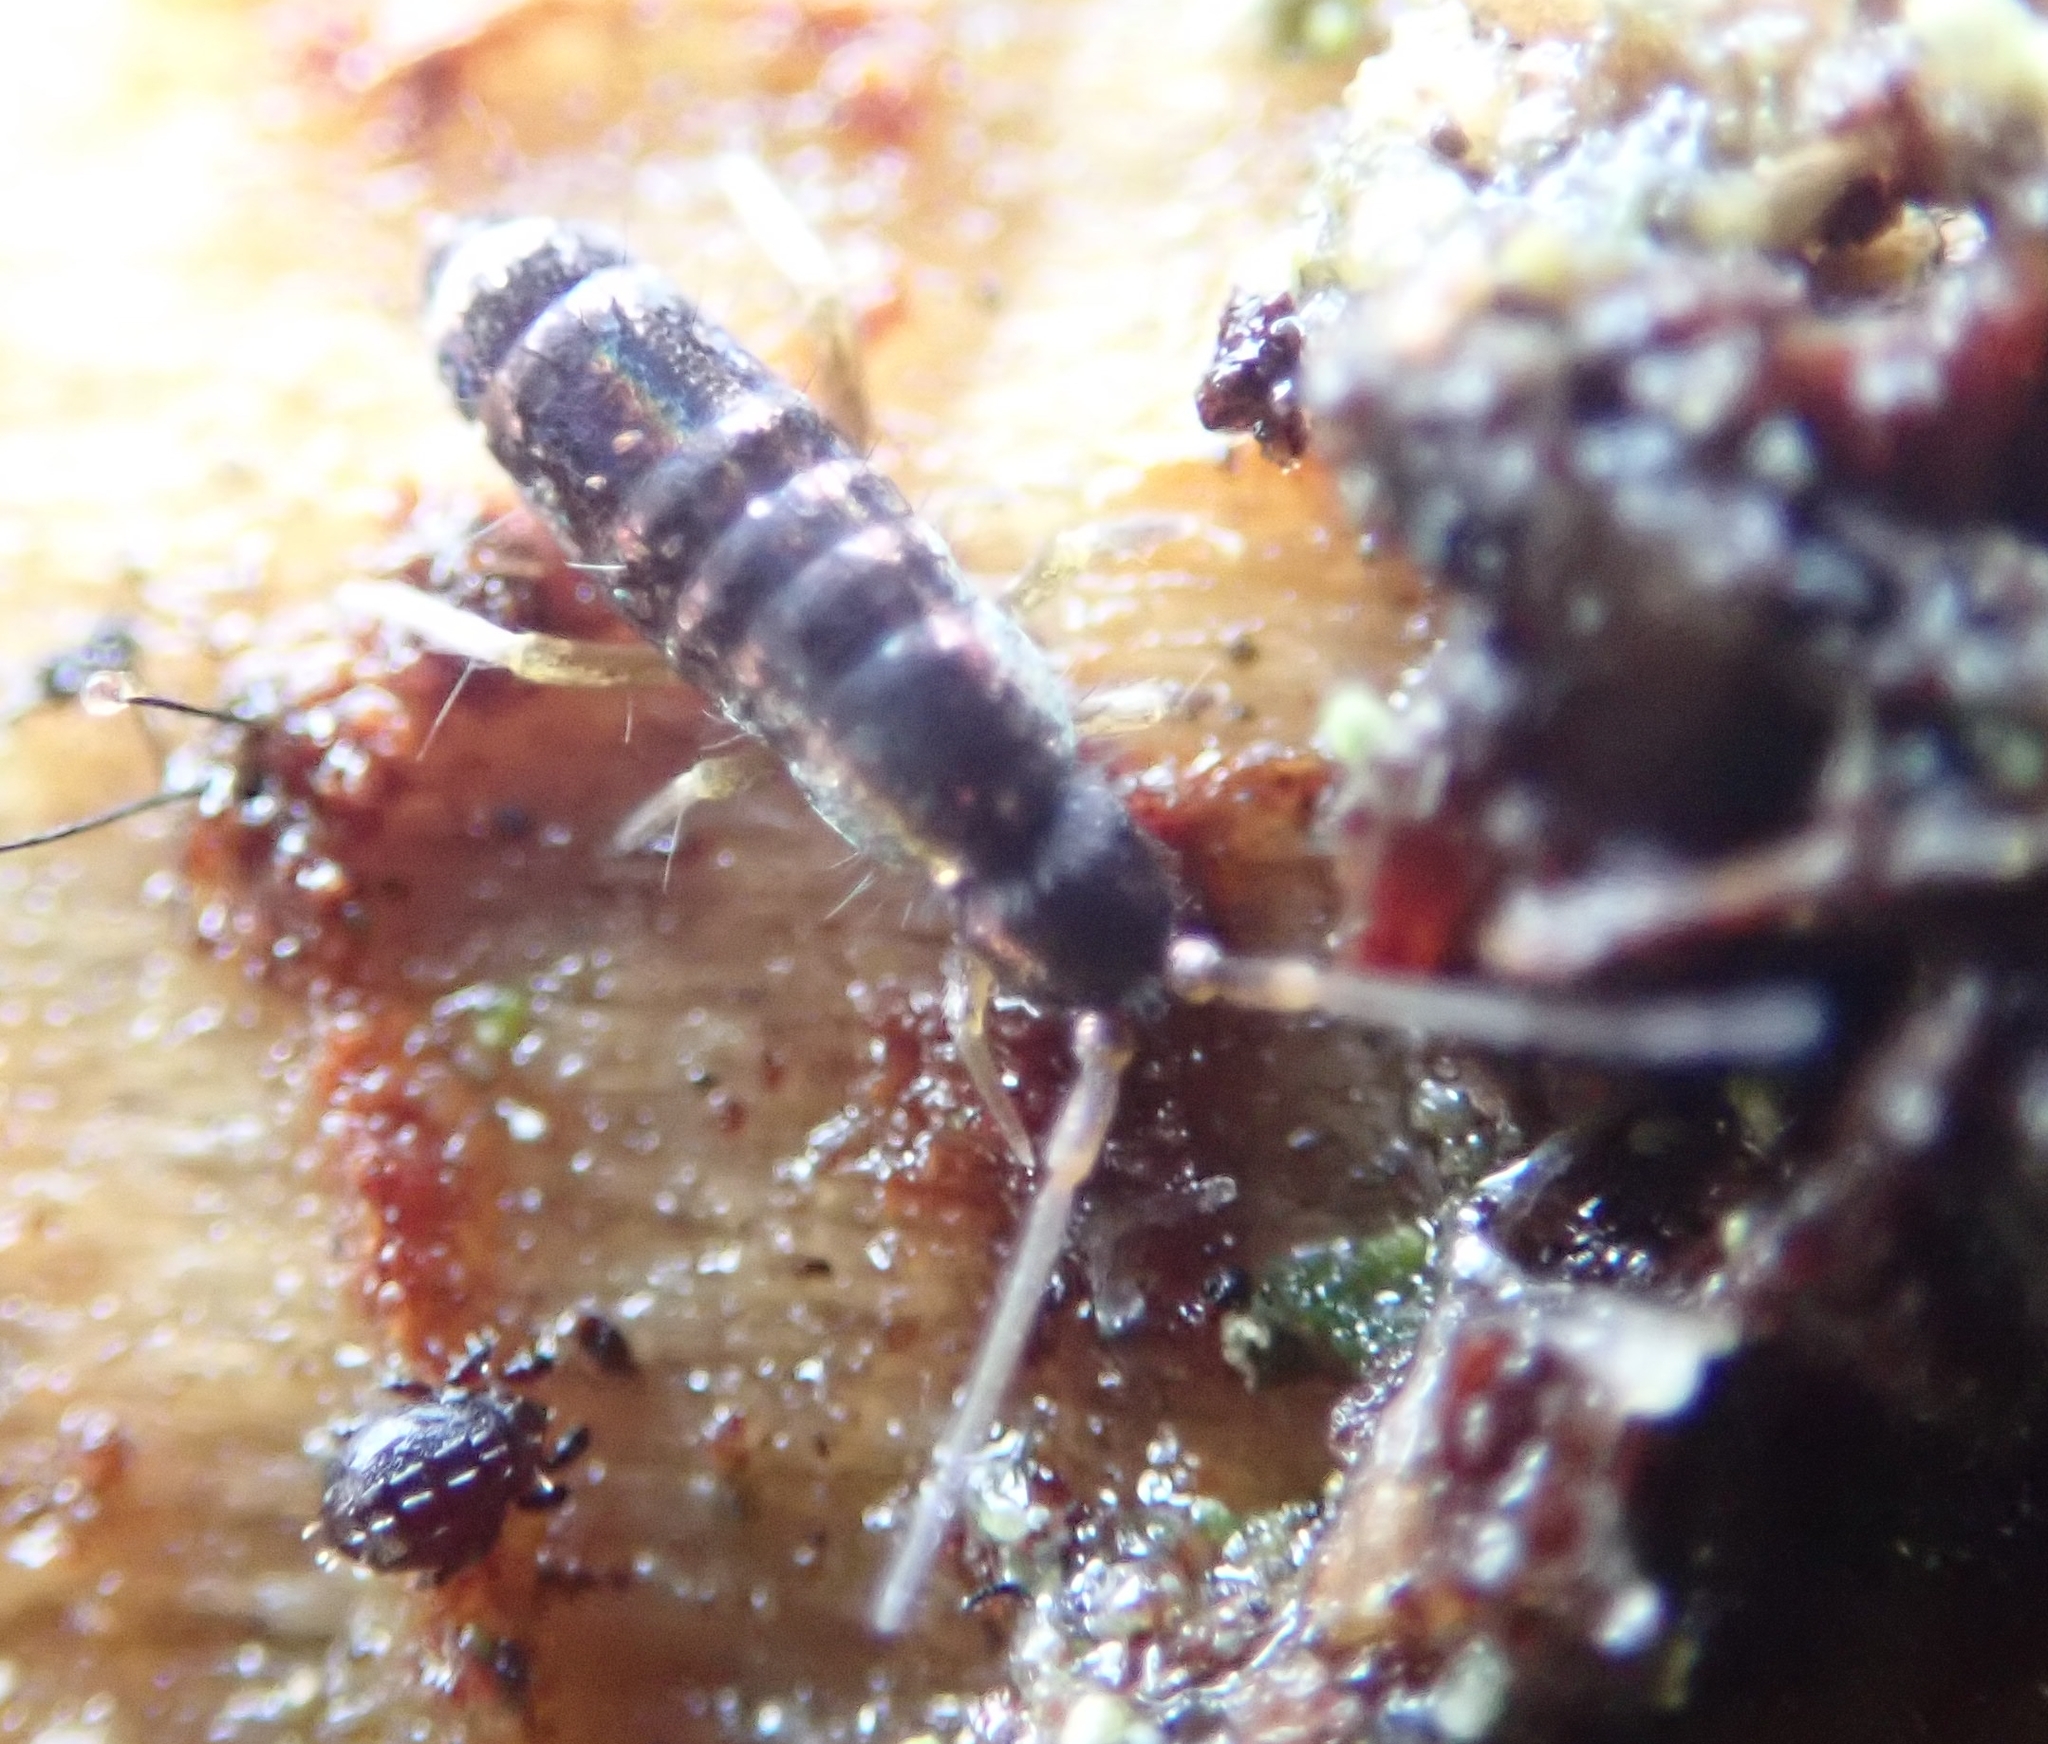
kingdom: Animalia
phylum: Arthropoda
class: Collembola
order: Entomobryomorpha
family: Tomoceridae
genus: Tomocerus
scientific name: Tomocerus vulgaris
